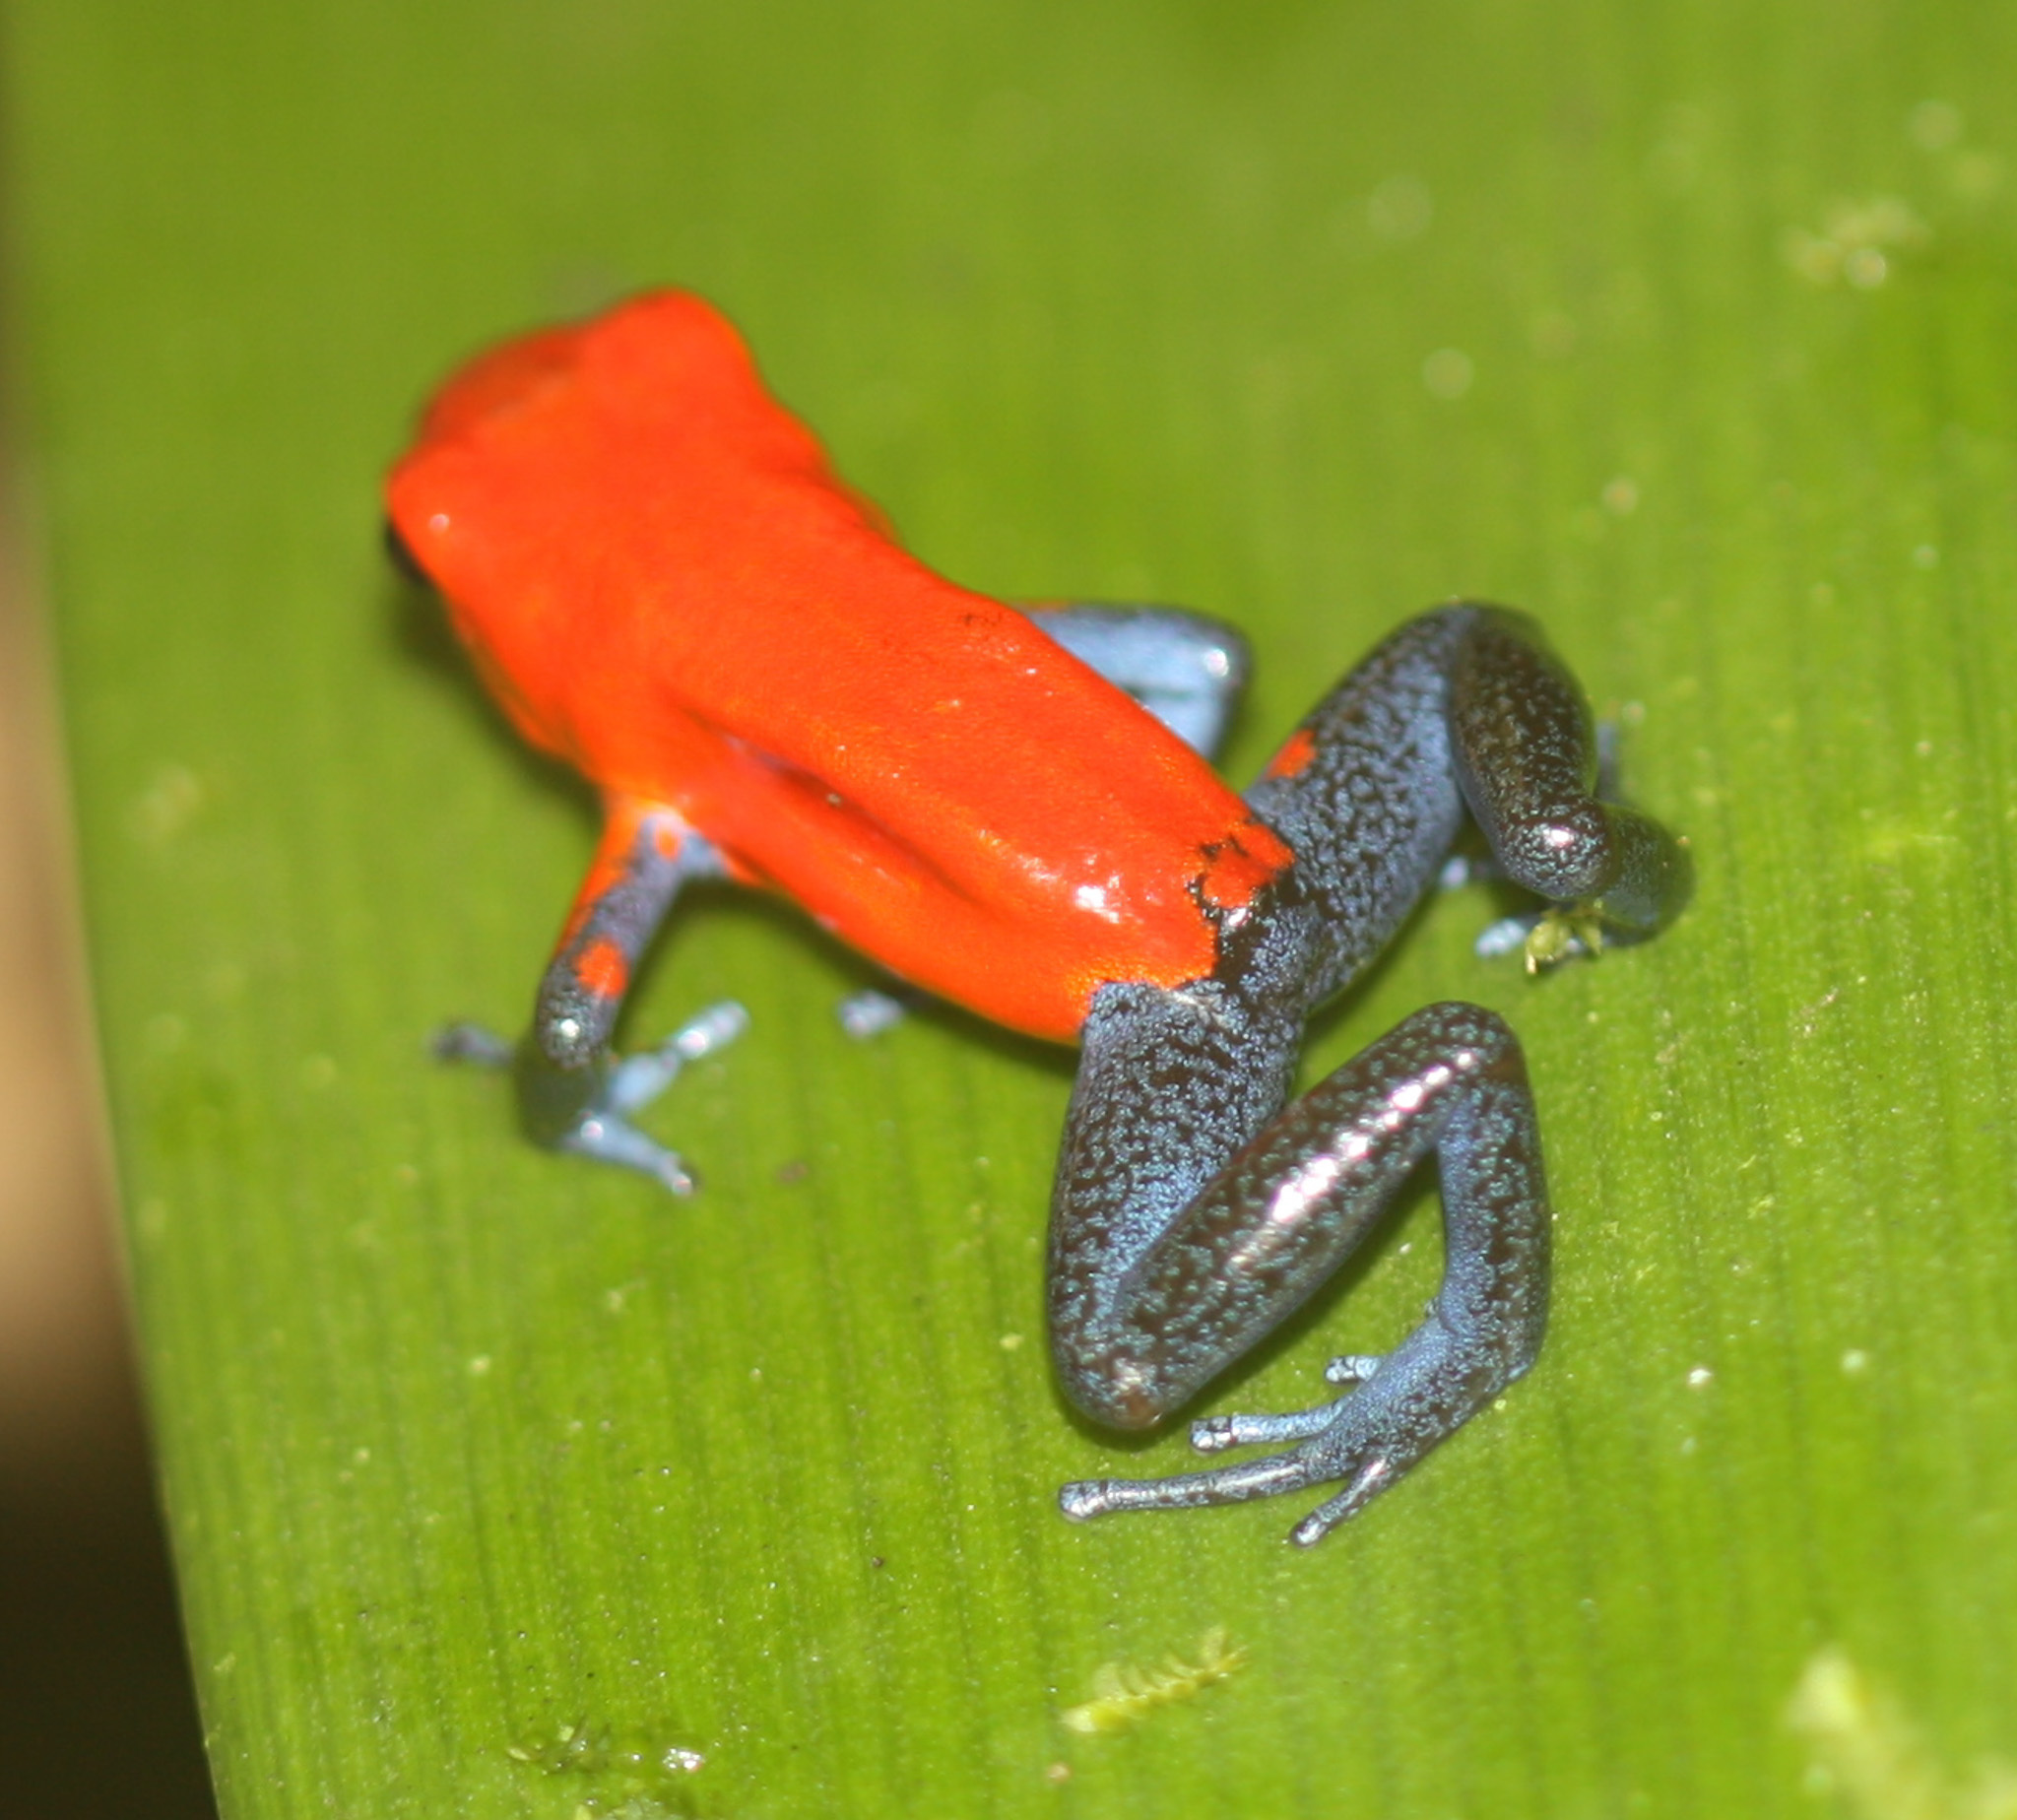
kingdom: Animalia
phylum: Chordata
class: Amphibia
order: Anura
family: Dendrobatidae
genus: Oophaga
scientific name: Oophaga pumilio
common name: Flaming poison frog
